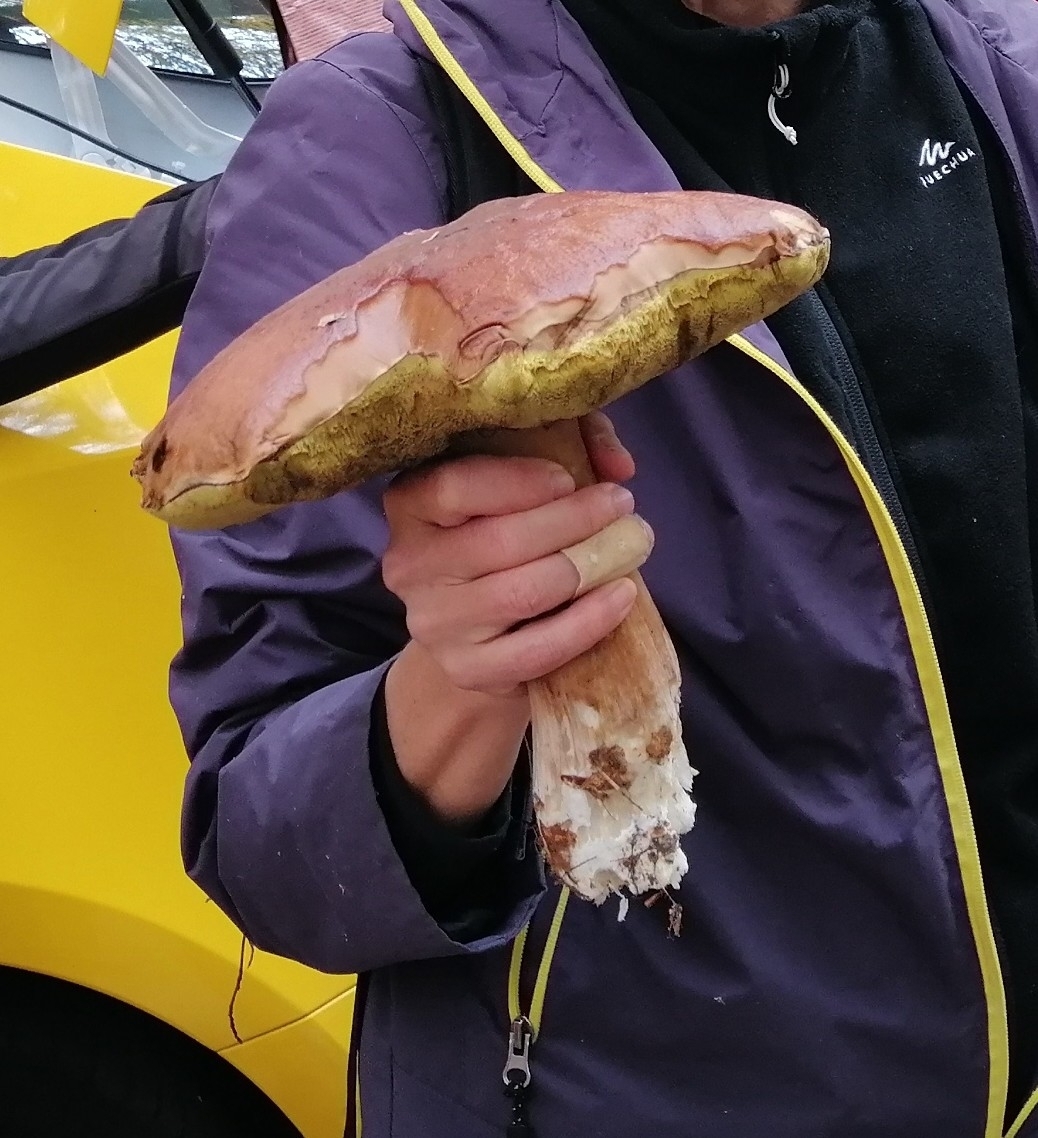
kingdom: Fungi
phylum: Basidiomycota
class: Agaricomycetes
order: Boletales
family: Boletaceae
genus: Boletus
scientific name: Boletus edulis
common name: Cep
